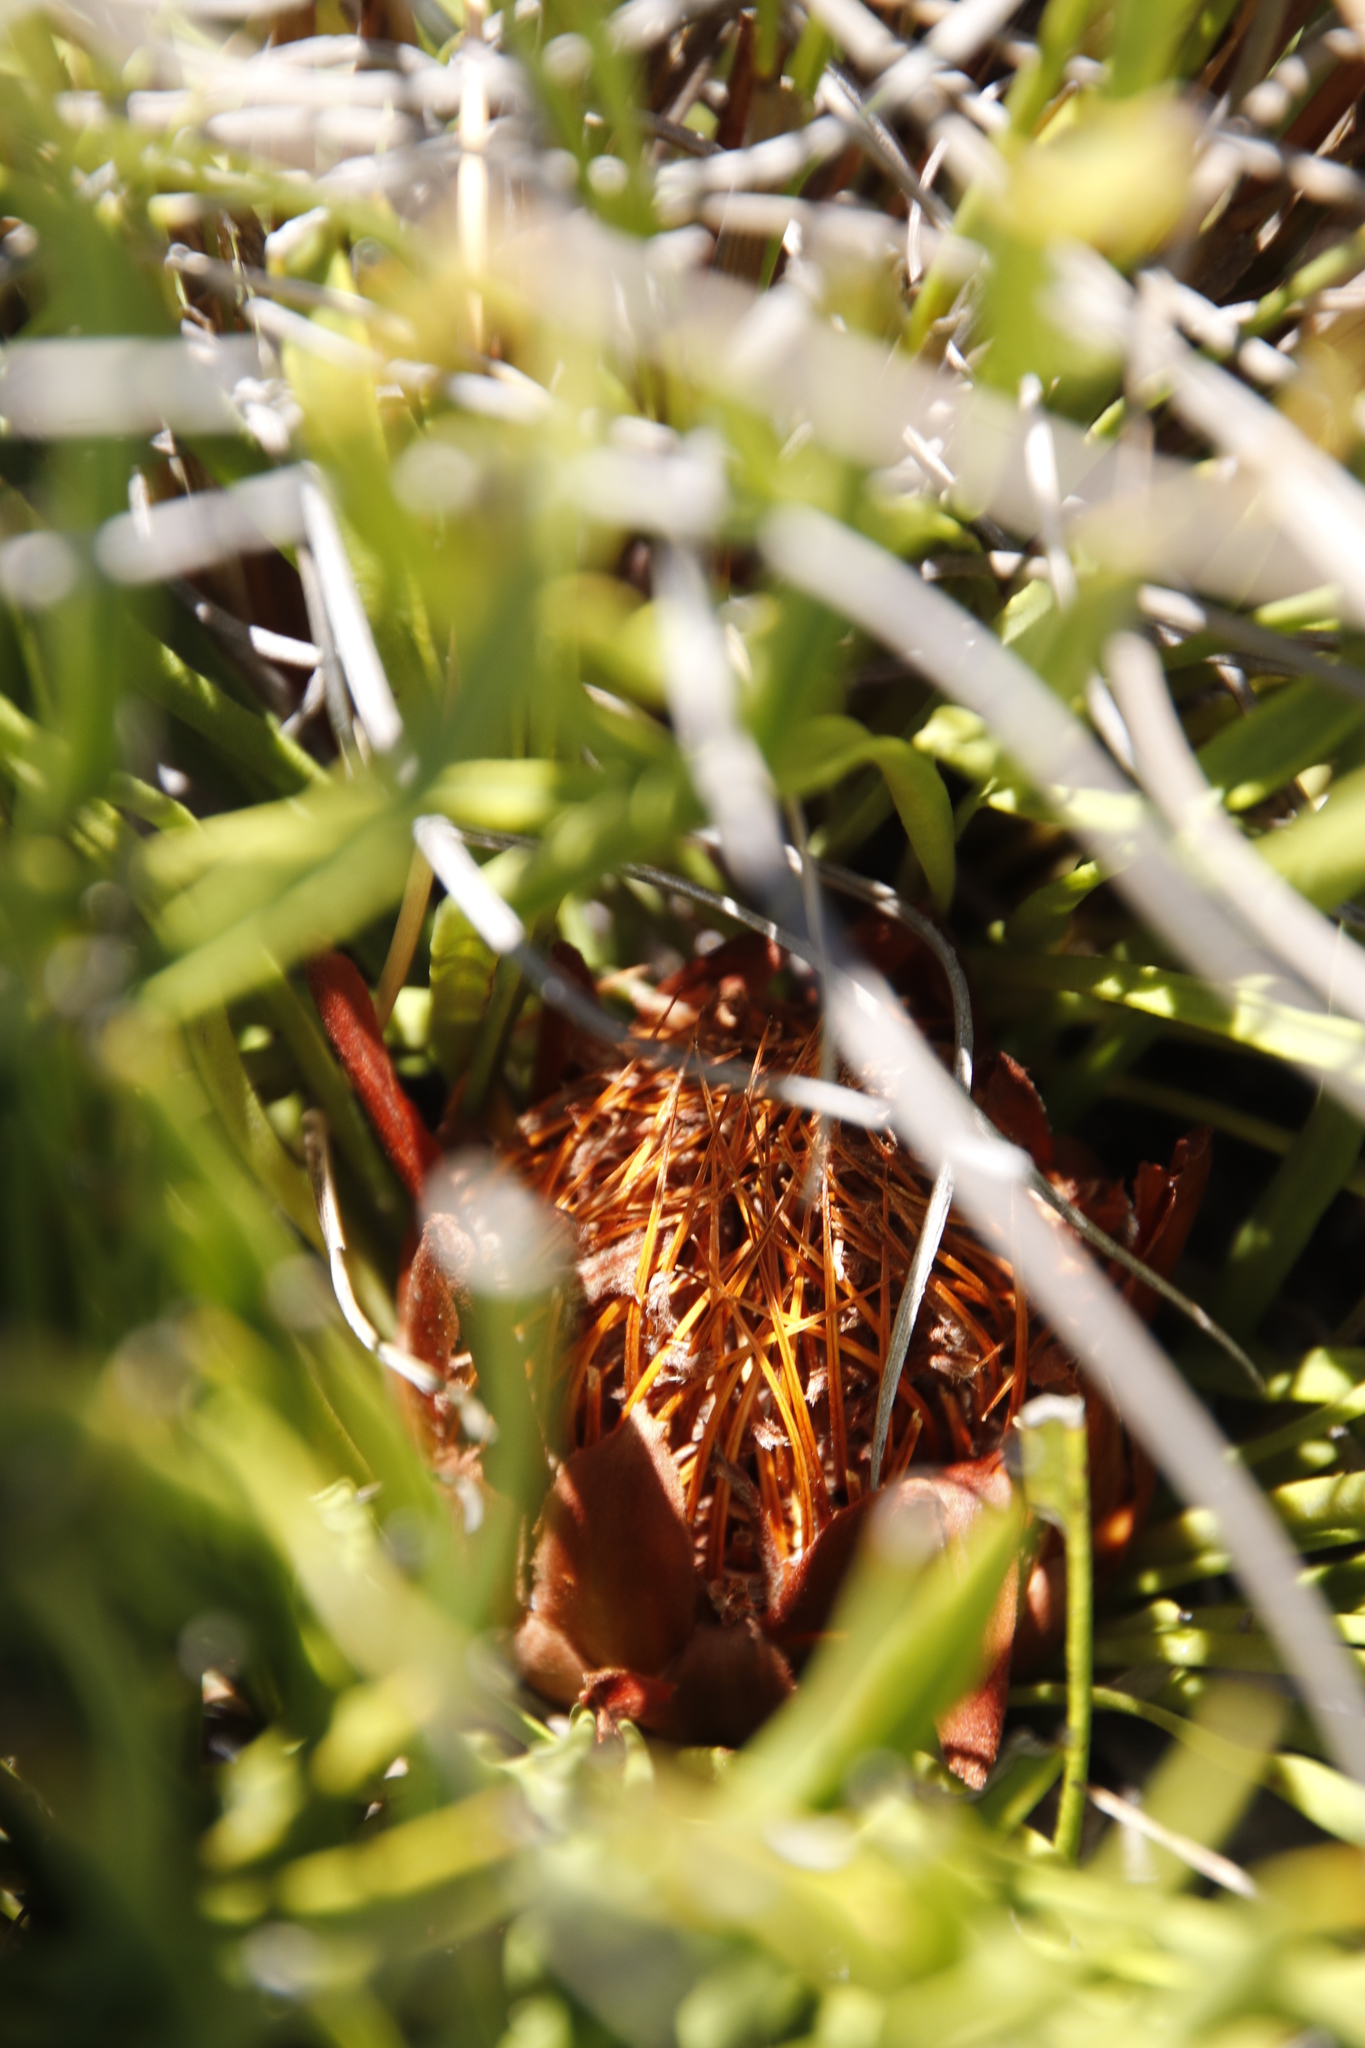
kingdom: Plantae
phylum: Tracheophyta
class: Magnoliopsida
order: Proteales
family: Proteaceae
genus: Protea
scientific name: Protea scabra
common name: Sandpaper-leaf sugarbush
